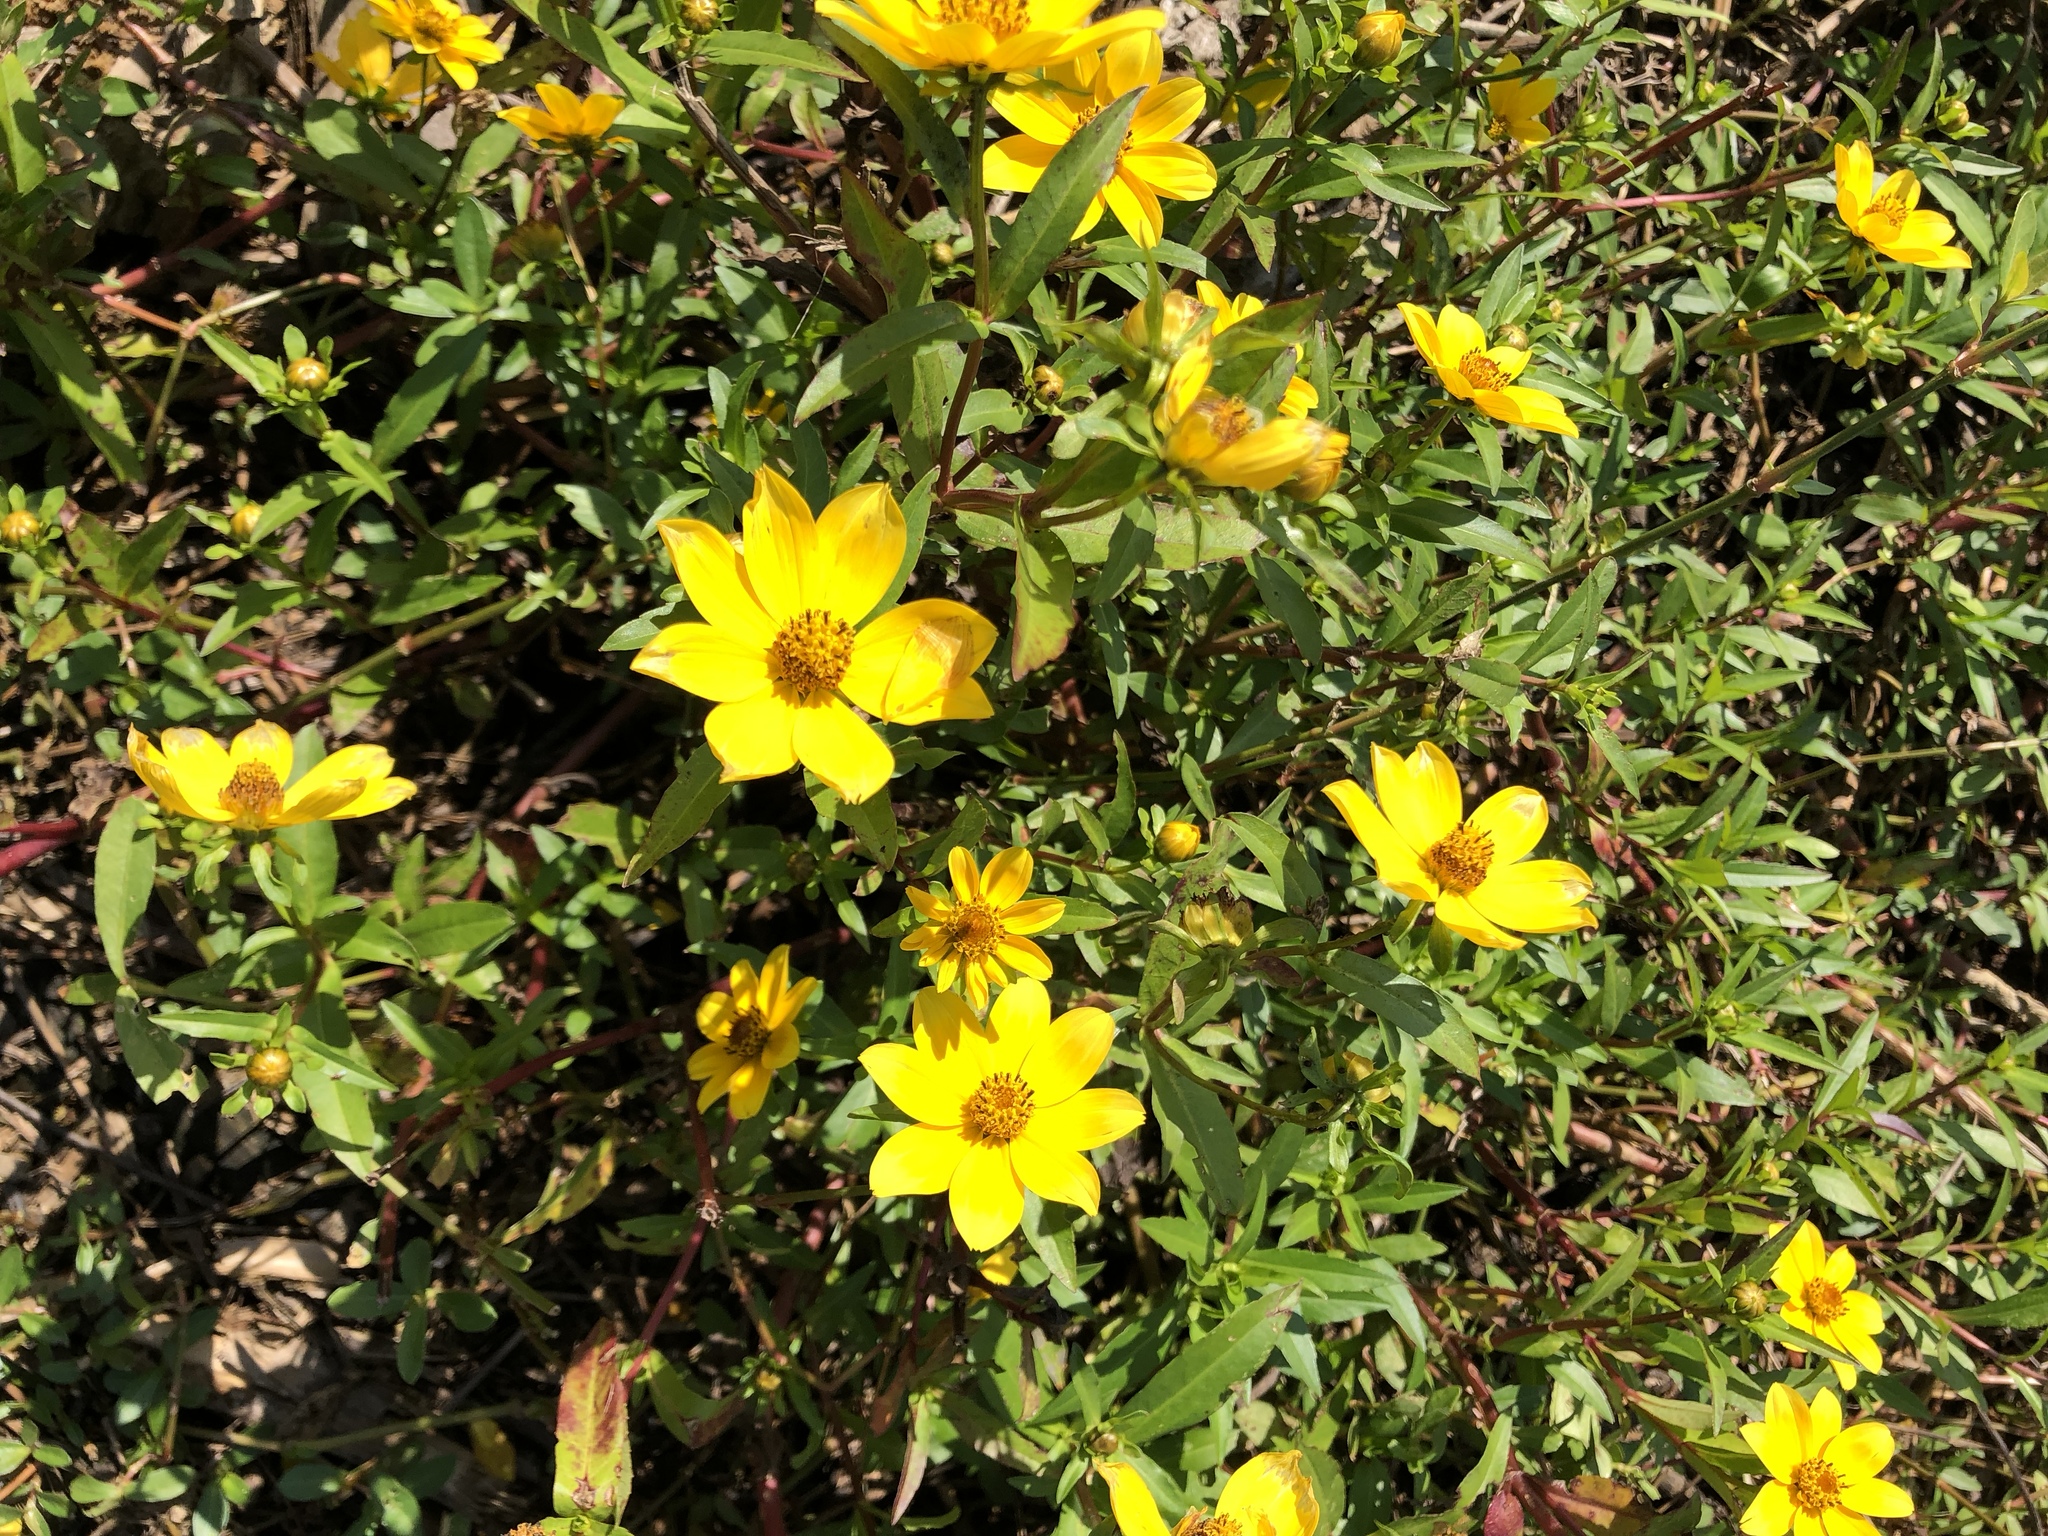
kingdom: Plantae
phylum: Tracheophyta
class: Magnoliopsida
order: Asterales
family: Asteraceae
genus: Bidens
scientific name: Bidens aristosa
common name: Western tickseed
